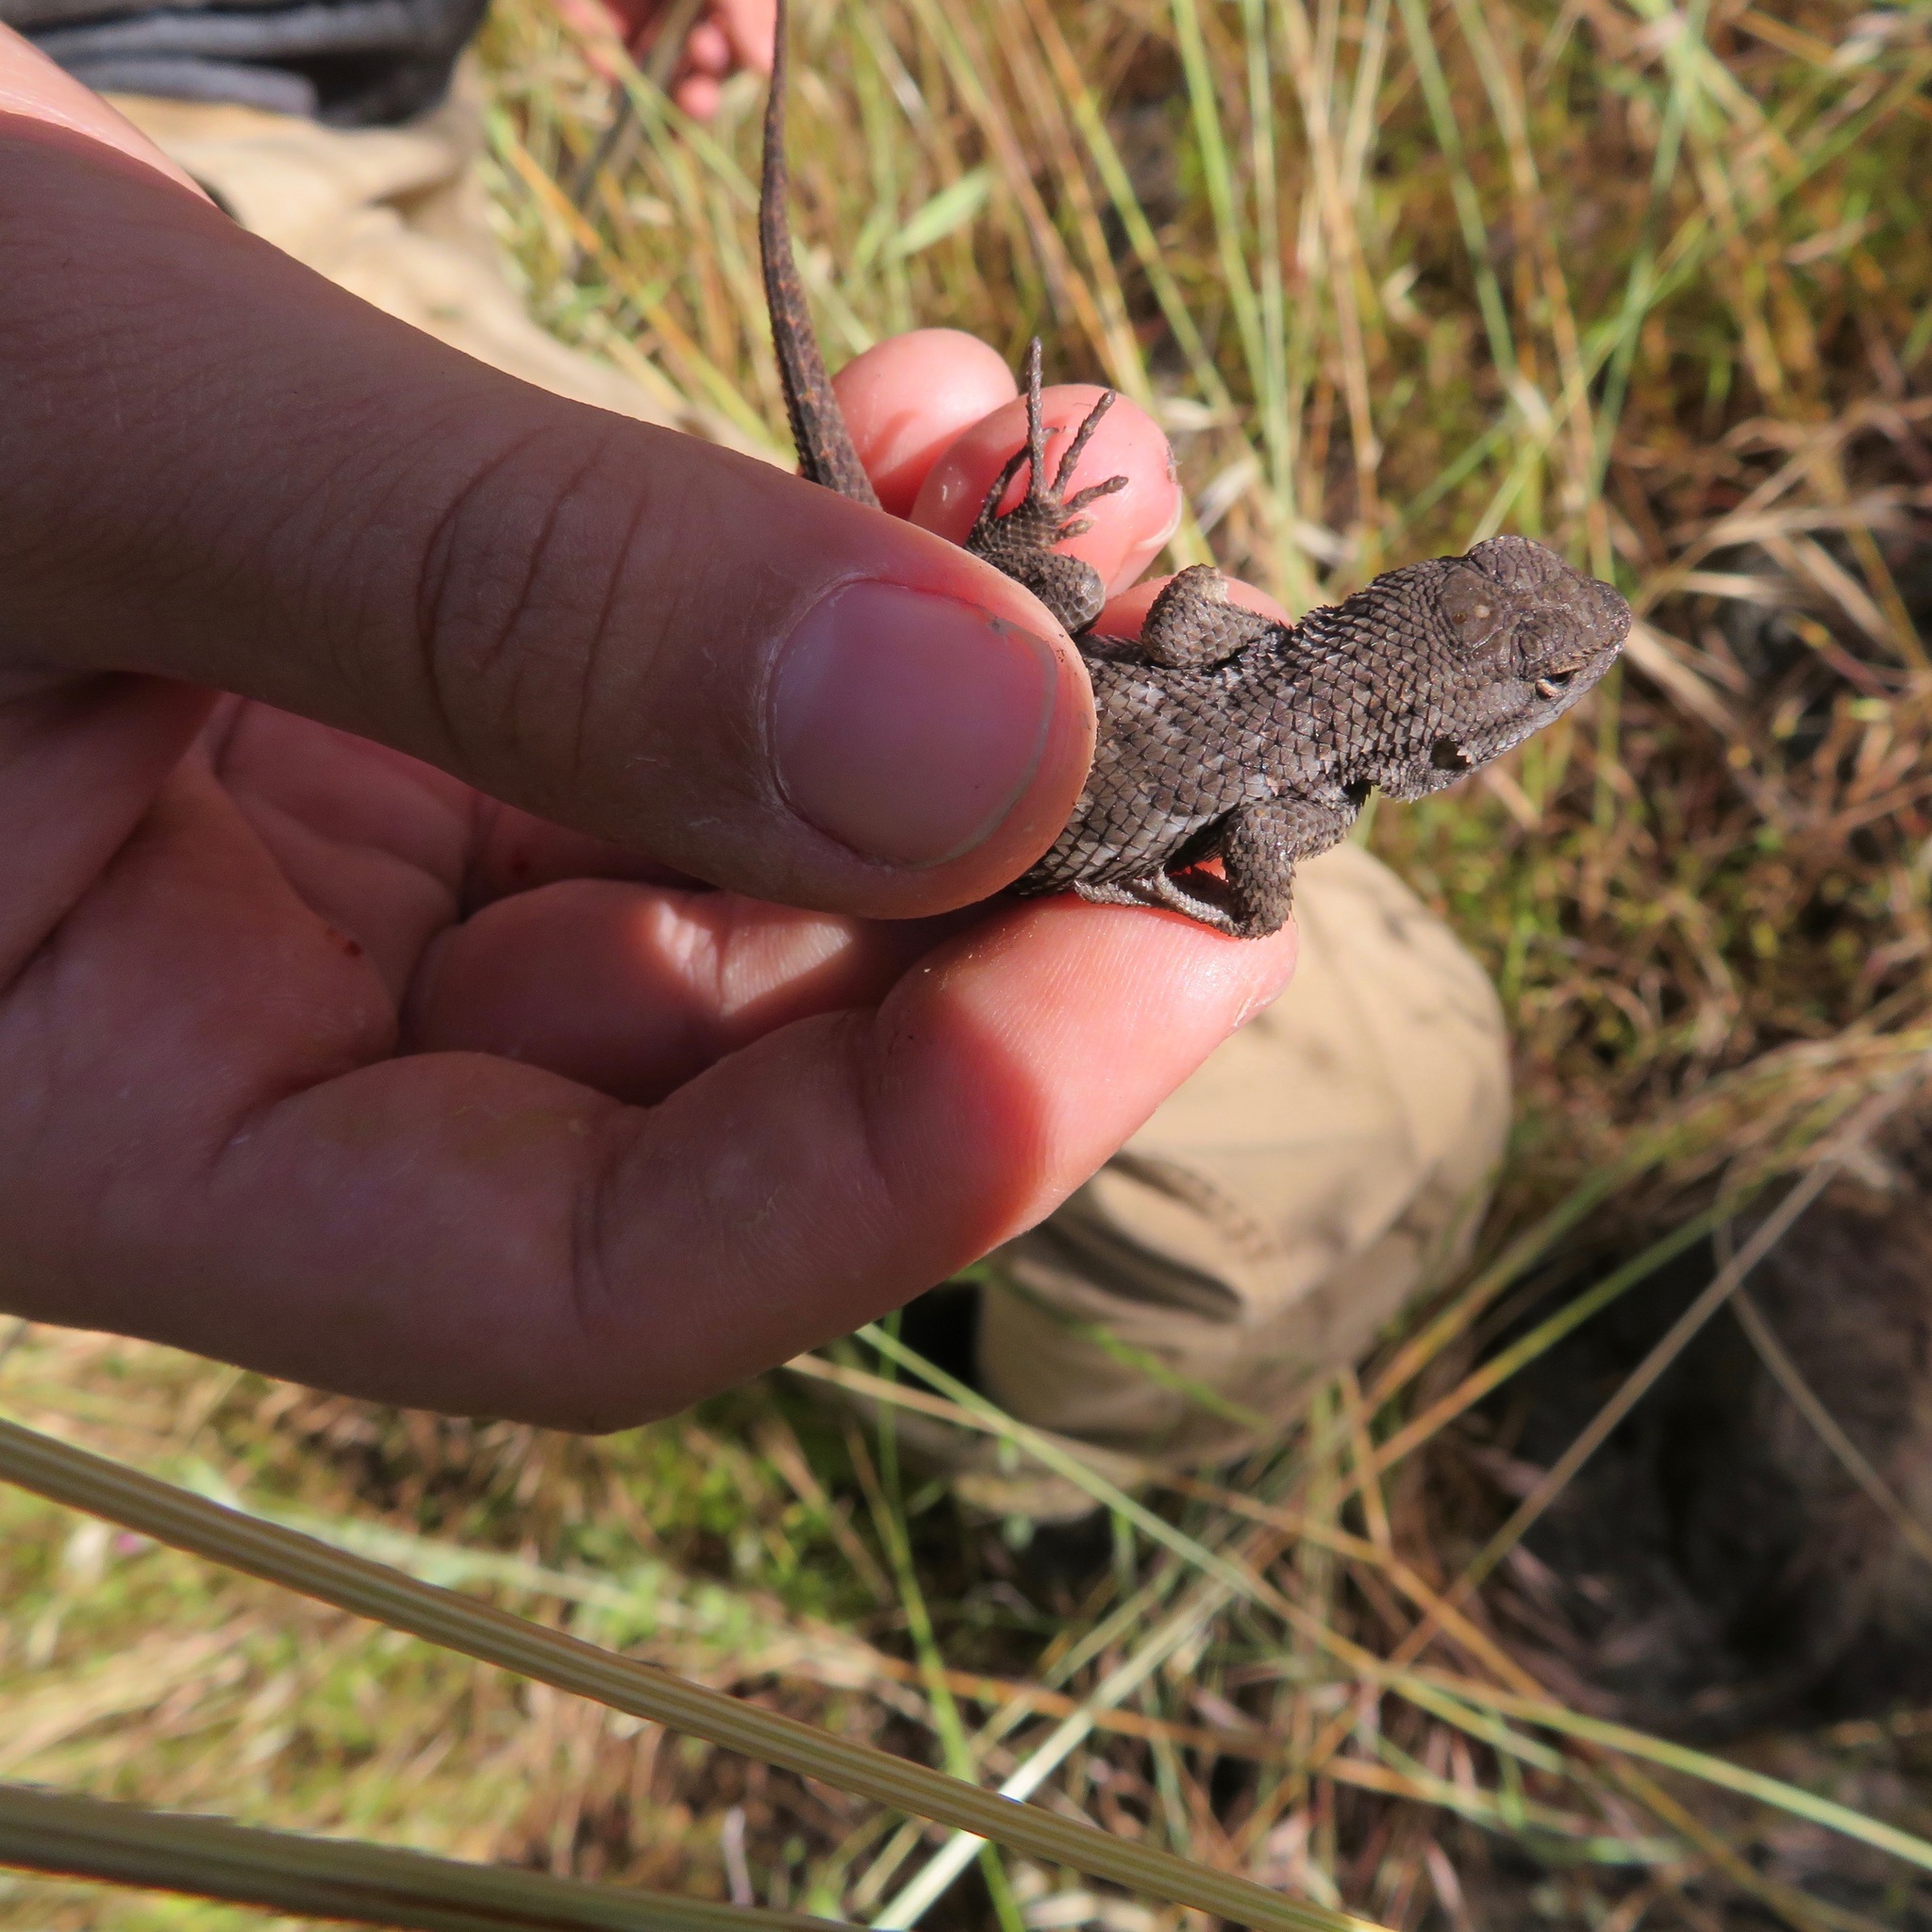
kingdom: Animalia
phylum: Chordata
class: Squamata
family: Phrynosomatidae
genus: Sceloporus
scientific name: Sceloporus occidentalis
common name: Western fence lizard
